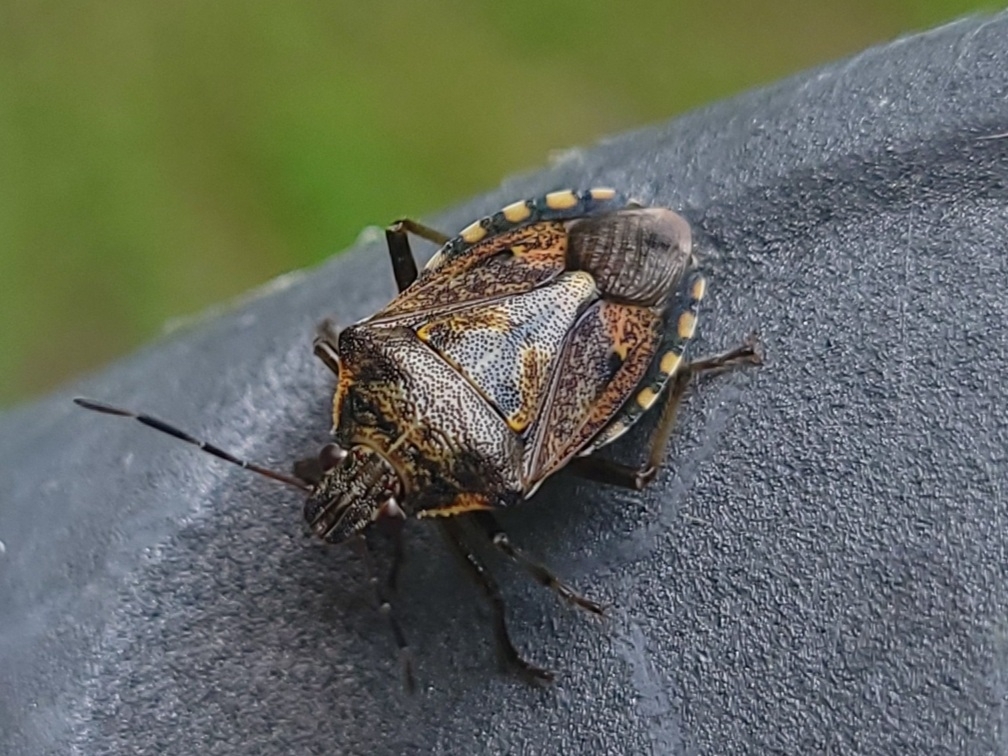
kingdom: Animalia
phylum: Arthropoda
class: Insecta
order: Hemiptera
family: Pentatomidae
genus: Podisus
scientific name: Podisus serieventris
